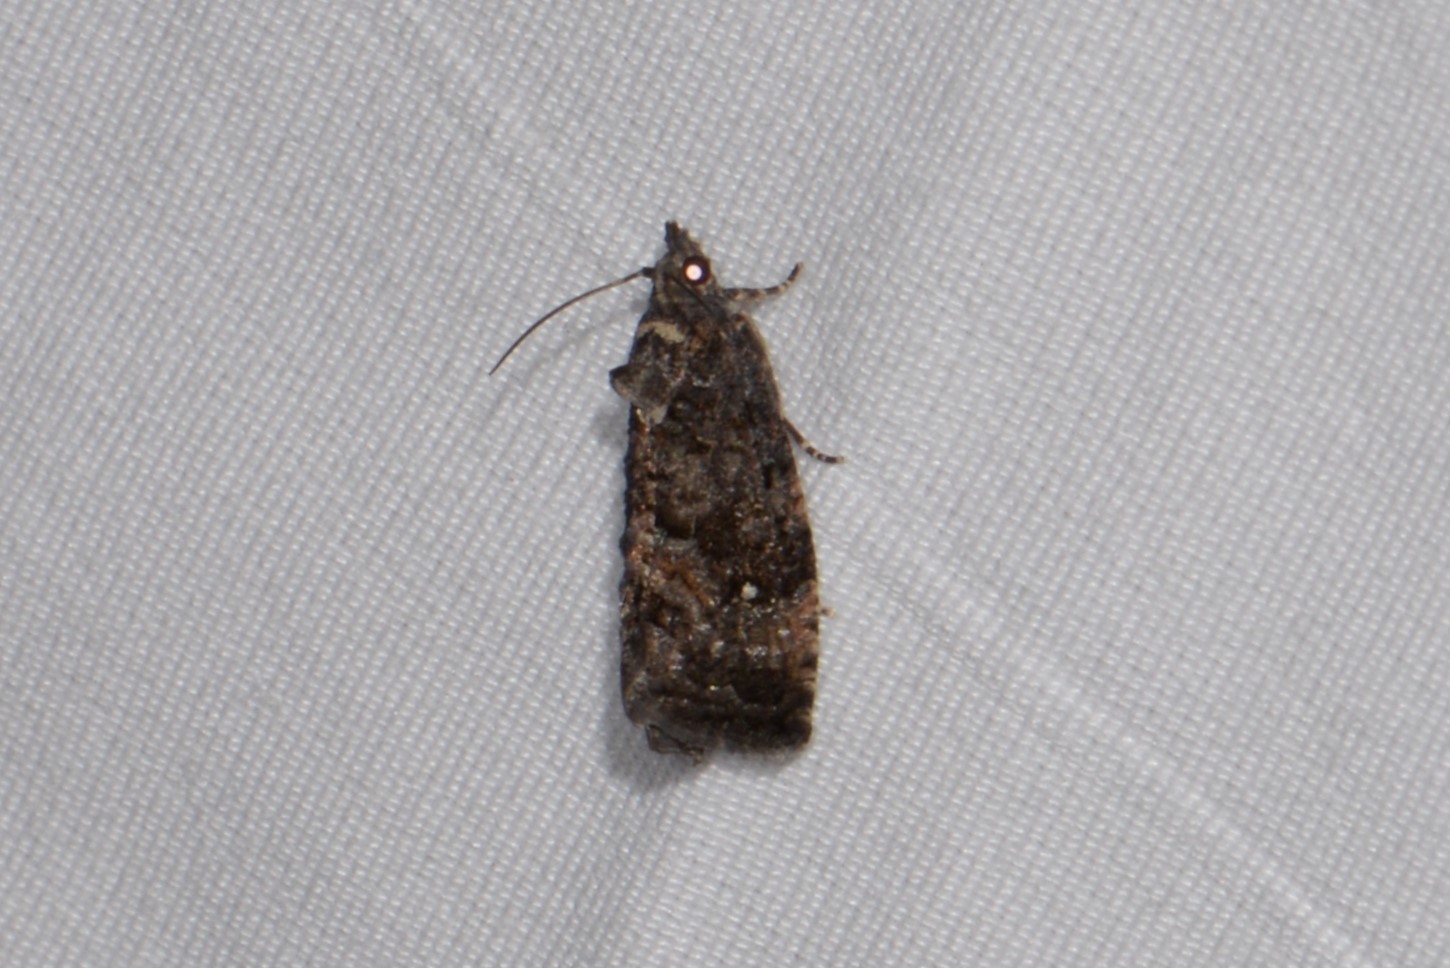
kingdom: Animalia
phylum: Arthropoda
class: Insecta
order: Lepidoptera
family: Tortricidae
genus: Gymnandrosoma
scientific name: Gymnandrosoma punctidiscanum
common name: Dotted ecdytolopha moth
